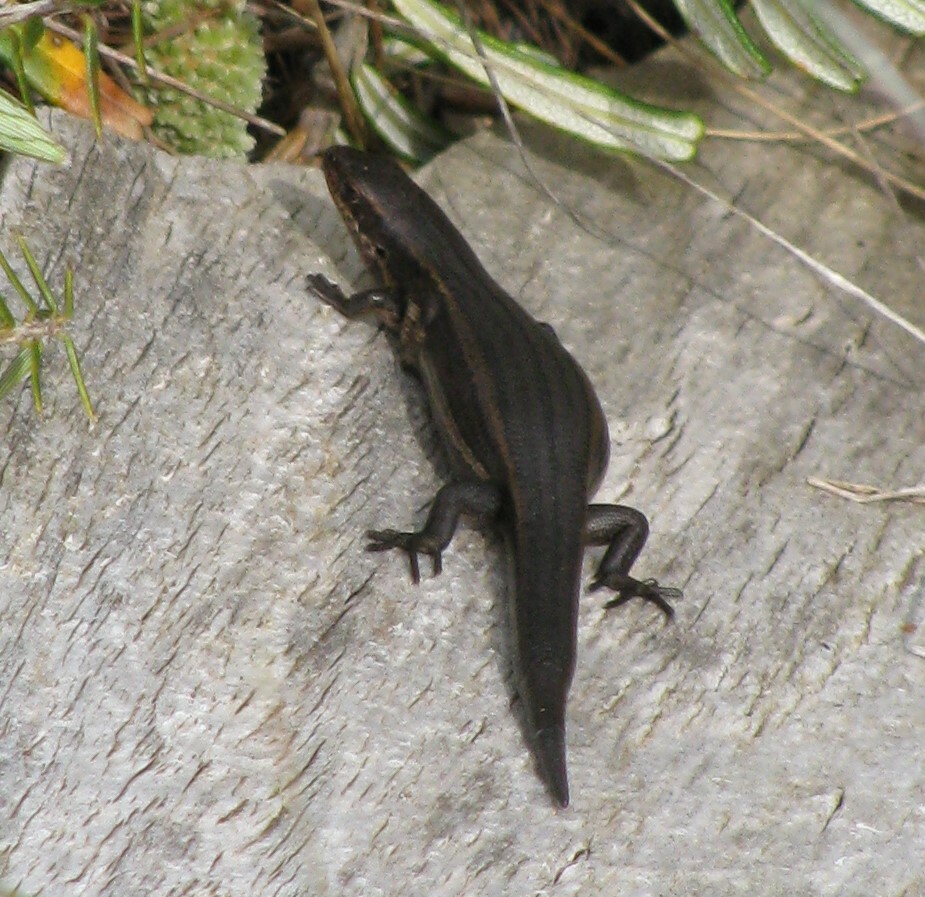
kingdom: Animalia
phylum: Chordata
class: Squamata
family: Scincidae
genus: Carinascincus
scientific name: Carinascincus metallicus
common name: Metallic cool-skink
